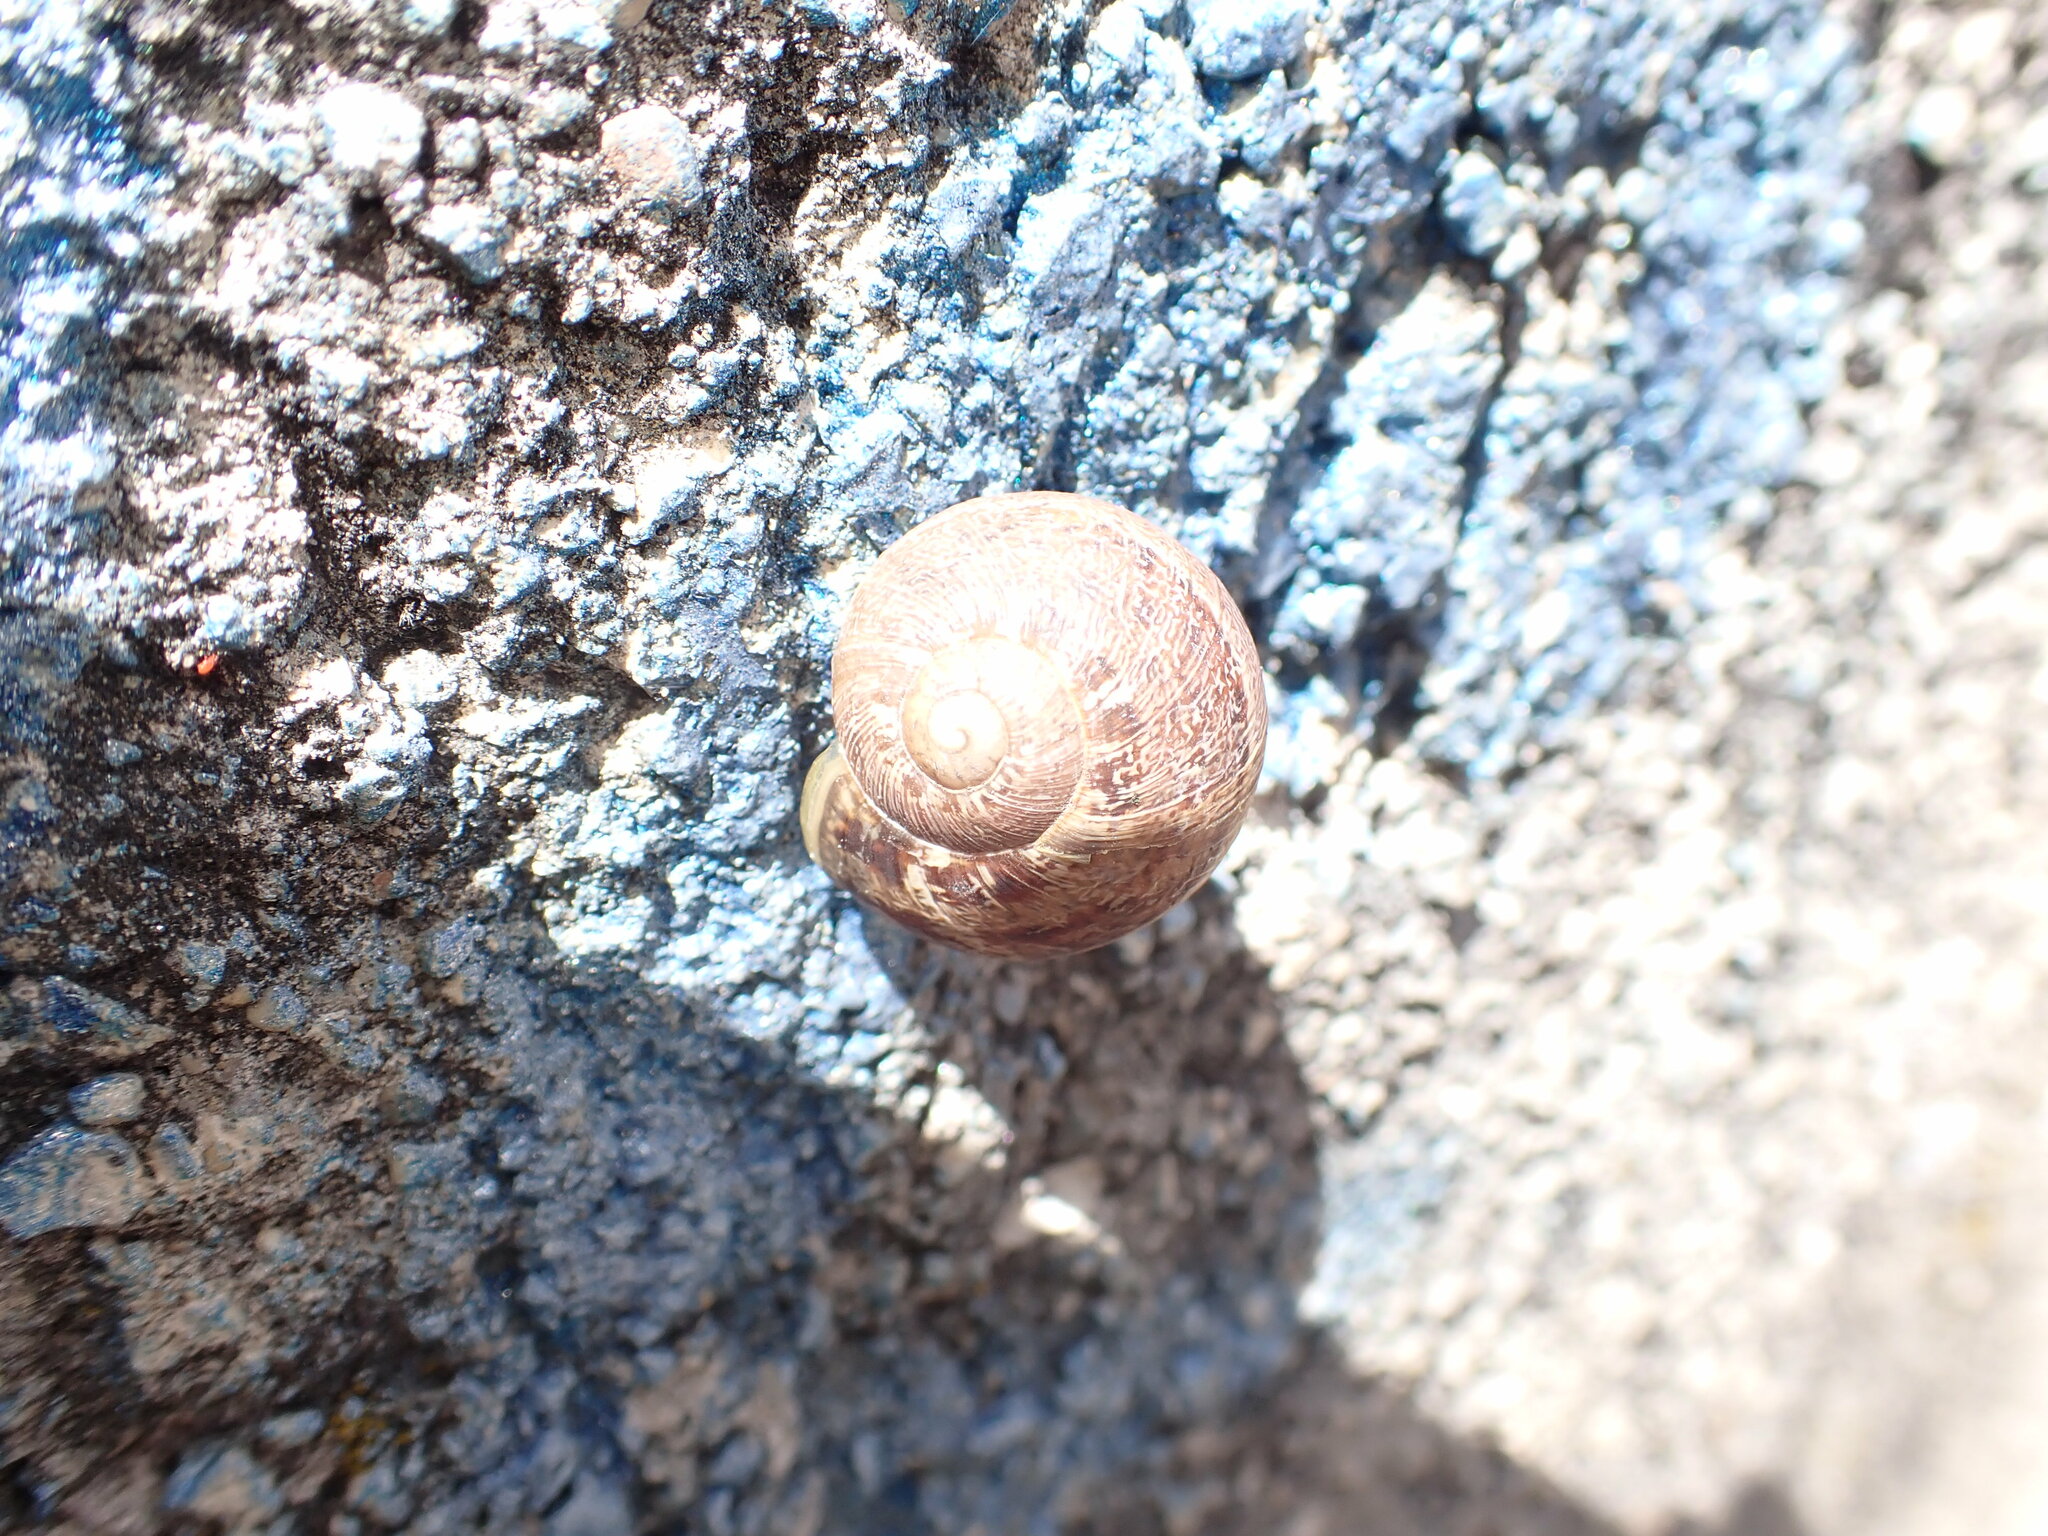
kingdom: Animalia
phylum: Mollusca
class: Gastropoda
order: Stylommatophora
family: Helicidae
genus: Cornu
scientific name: Cornu aspersum
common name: Brown garden snail
